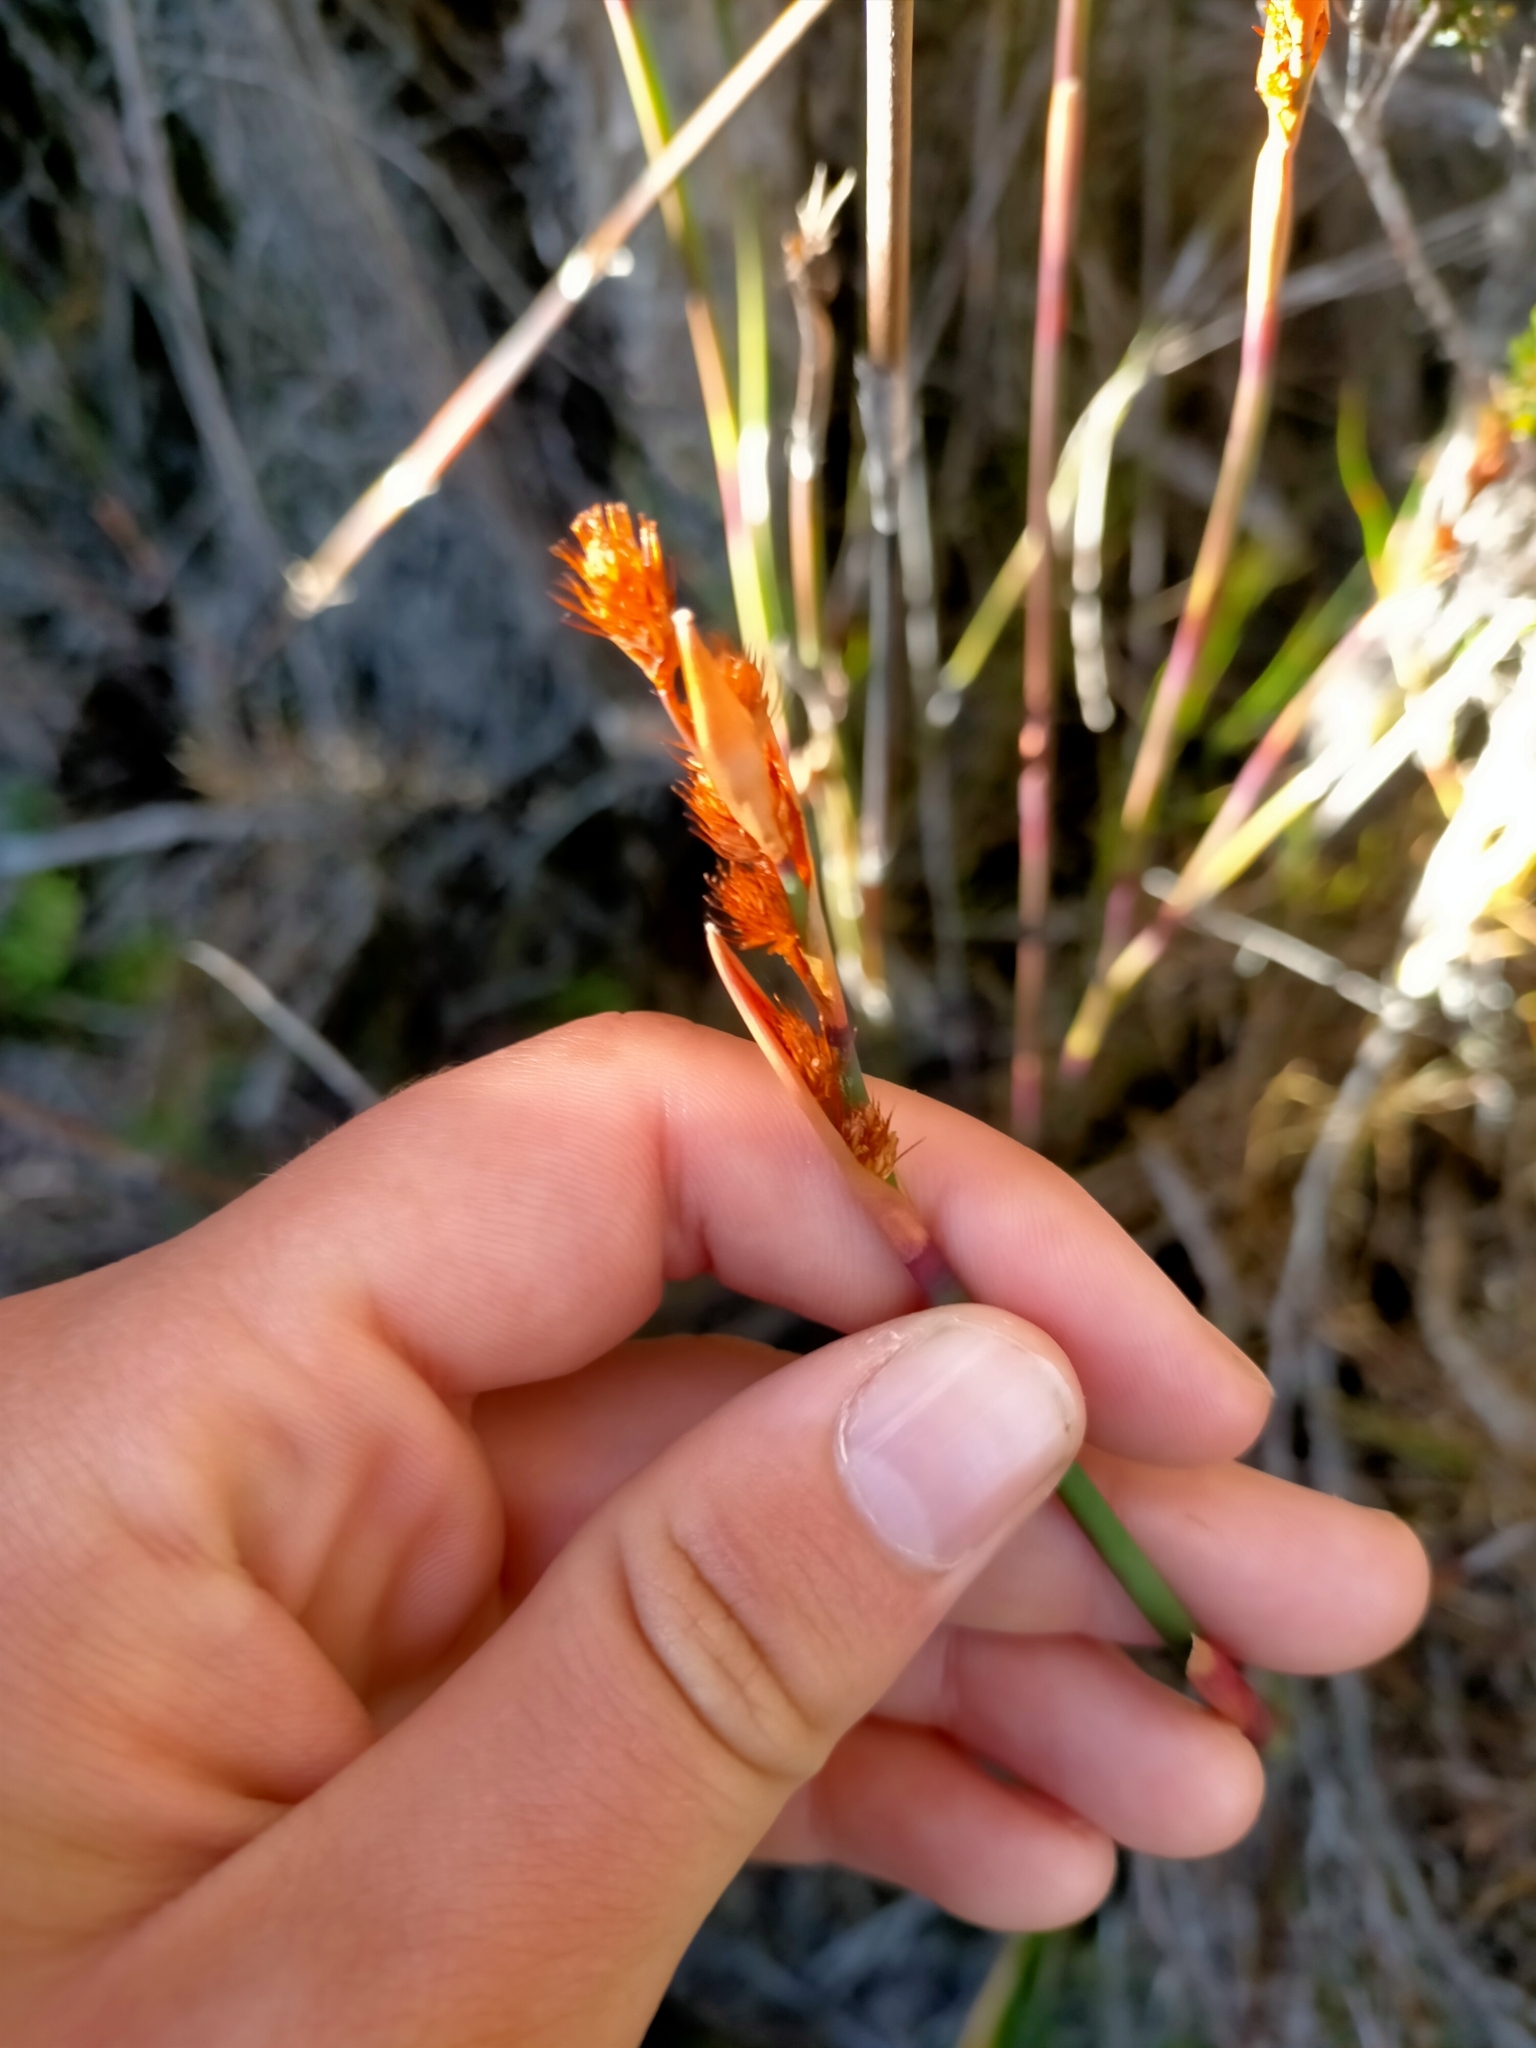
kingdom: Plantae
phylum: Tracheophyta
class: Liliopsida
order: Poales
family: Restionaceae
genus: Leptocarpus
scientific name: Leptocarpus tenax
